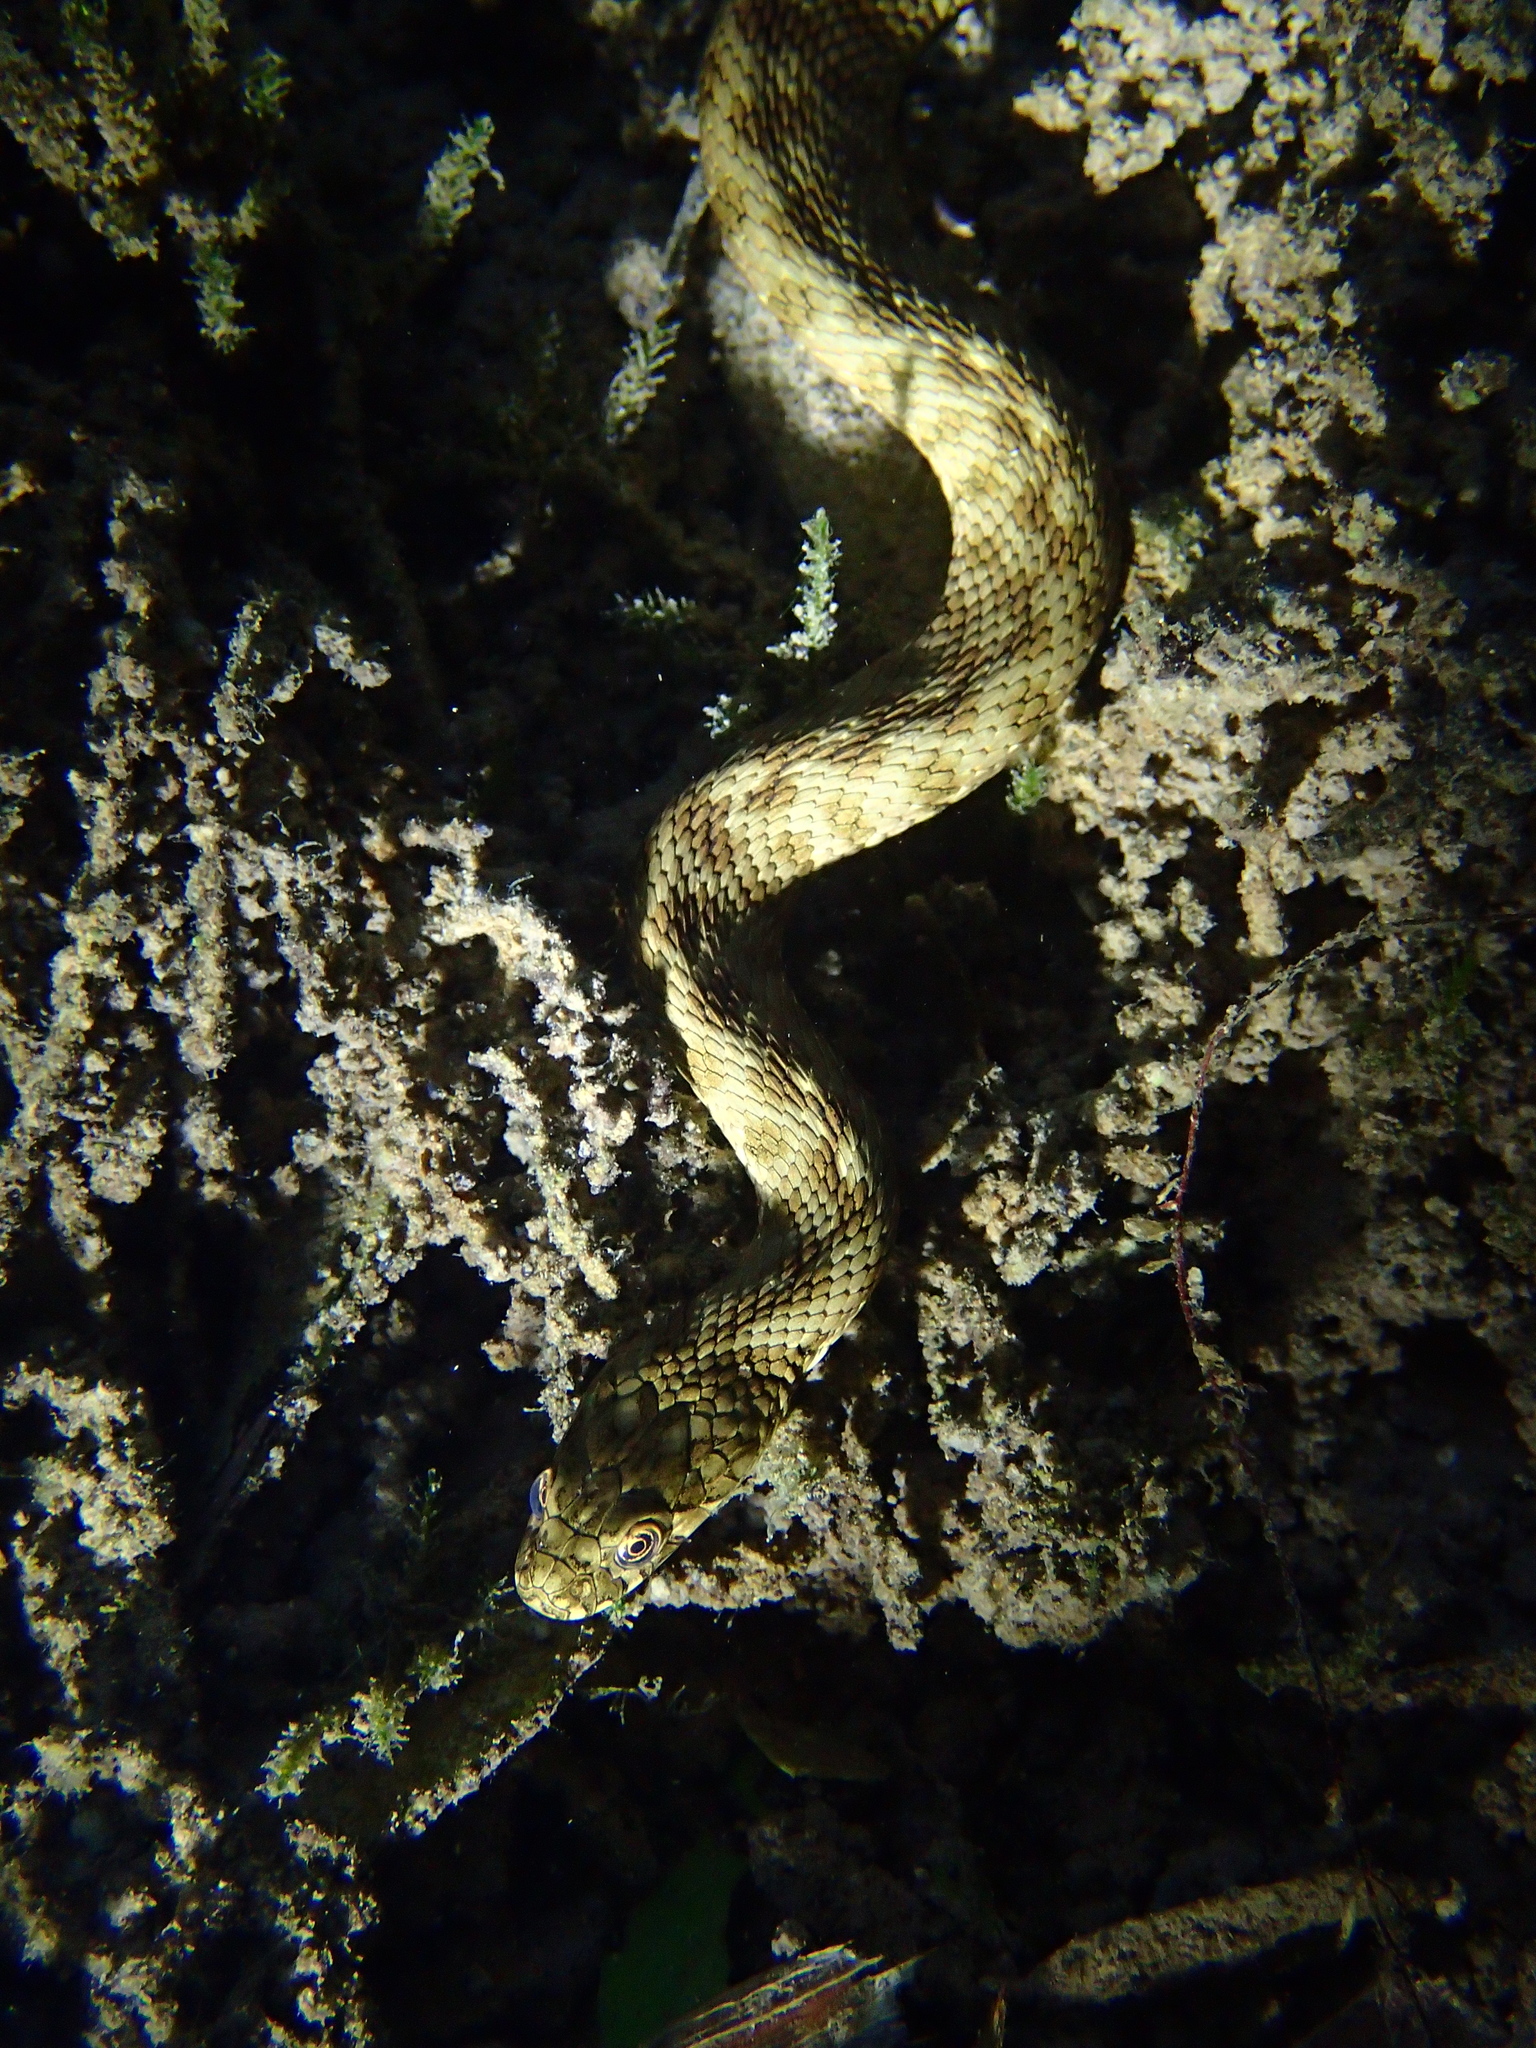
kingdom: Animalia
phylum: Chordata
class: Squamata
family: Colubridae
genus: Natrix
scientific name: Natrix maura
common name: Viperine water snake
